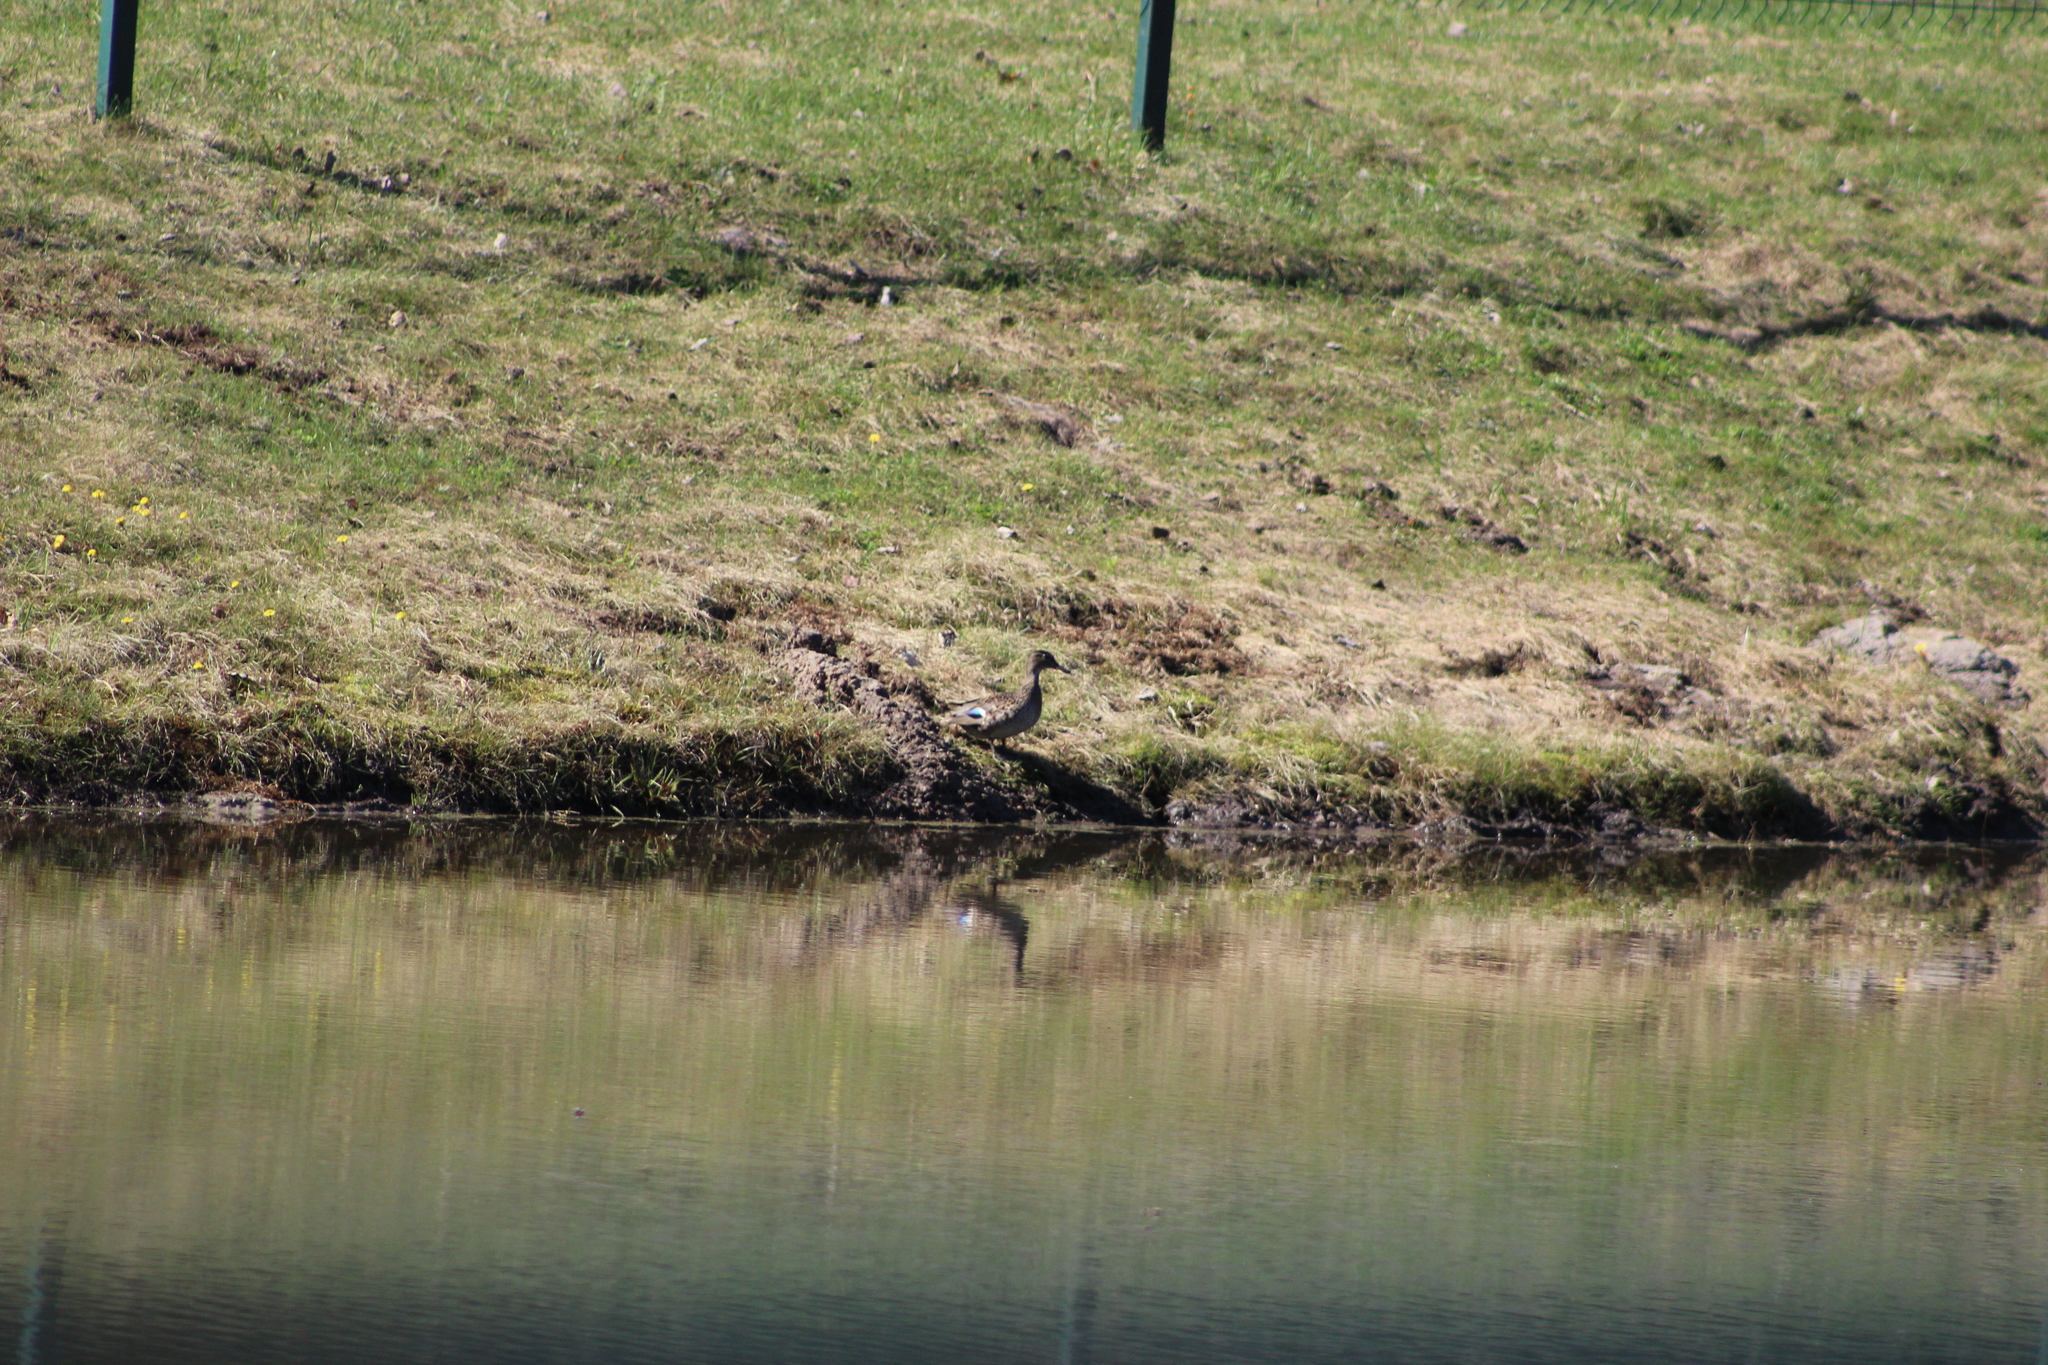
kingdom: Animalia
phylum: Chordata
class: Aves
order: Anseriformes
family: Anatidae
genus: Anas
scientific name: Anas crecca
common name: Eurasian teal
